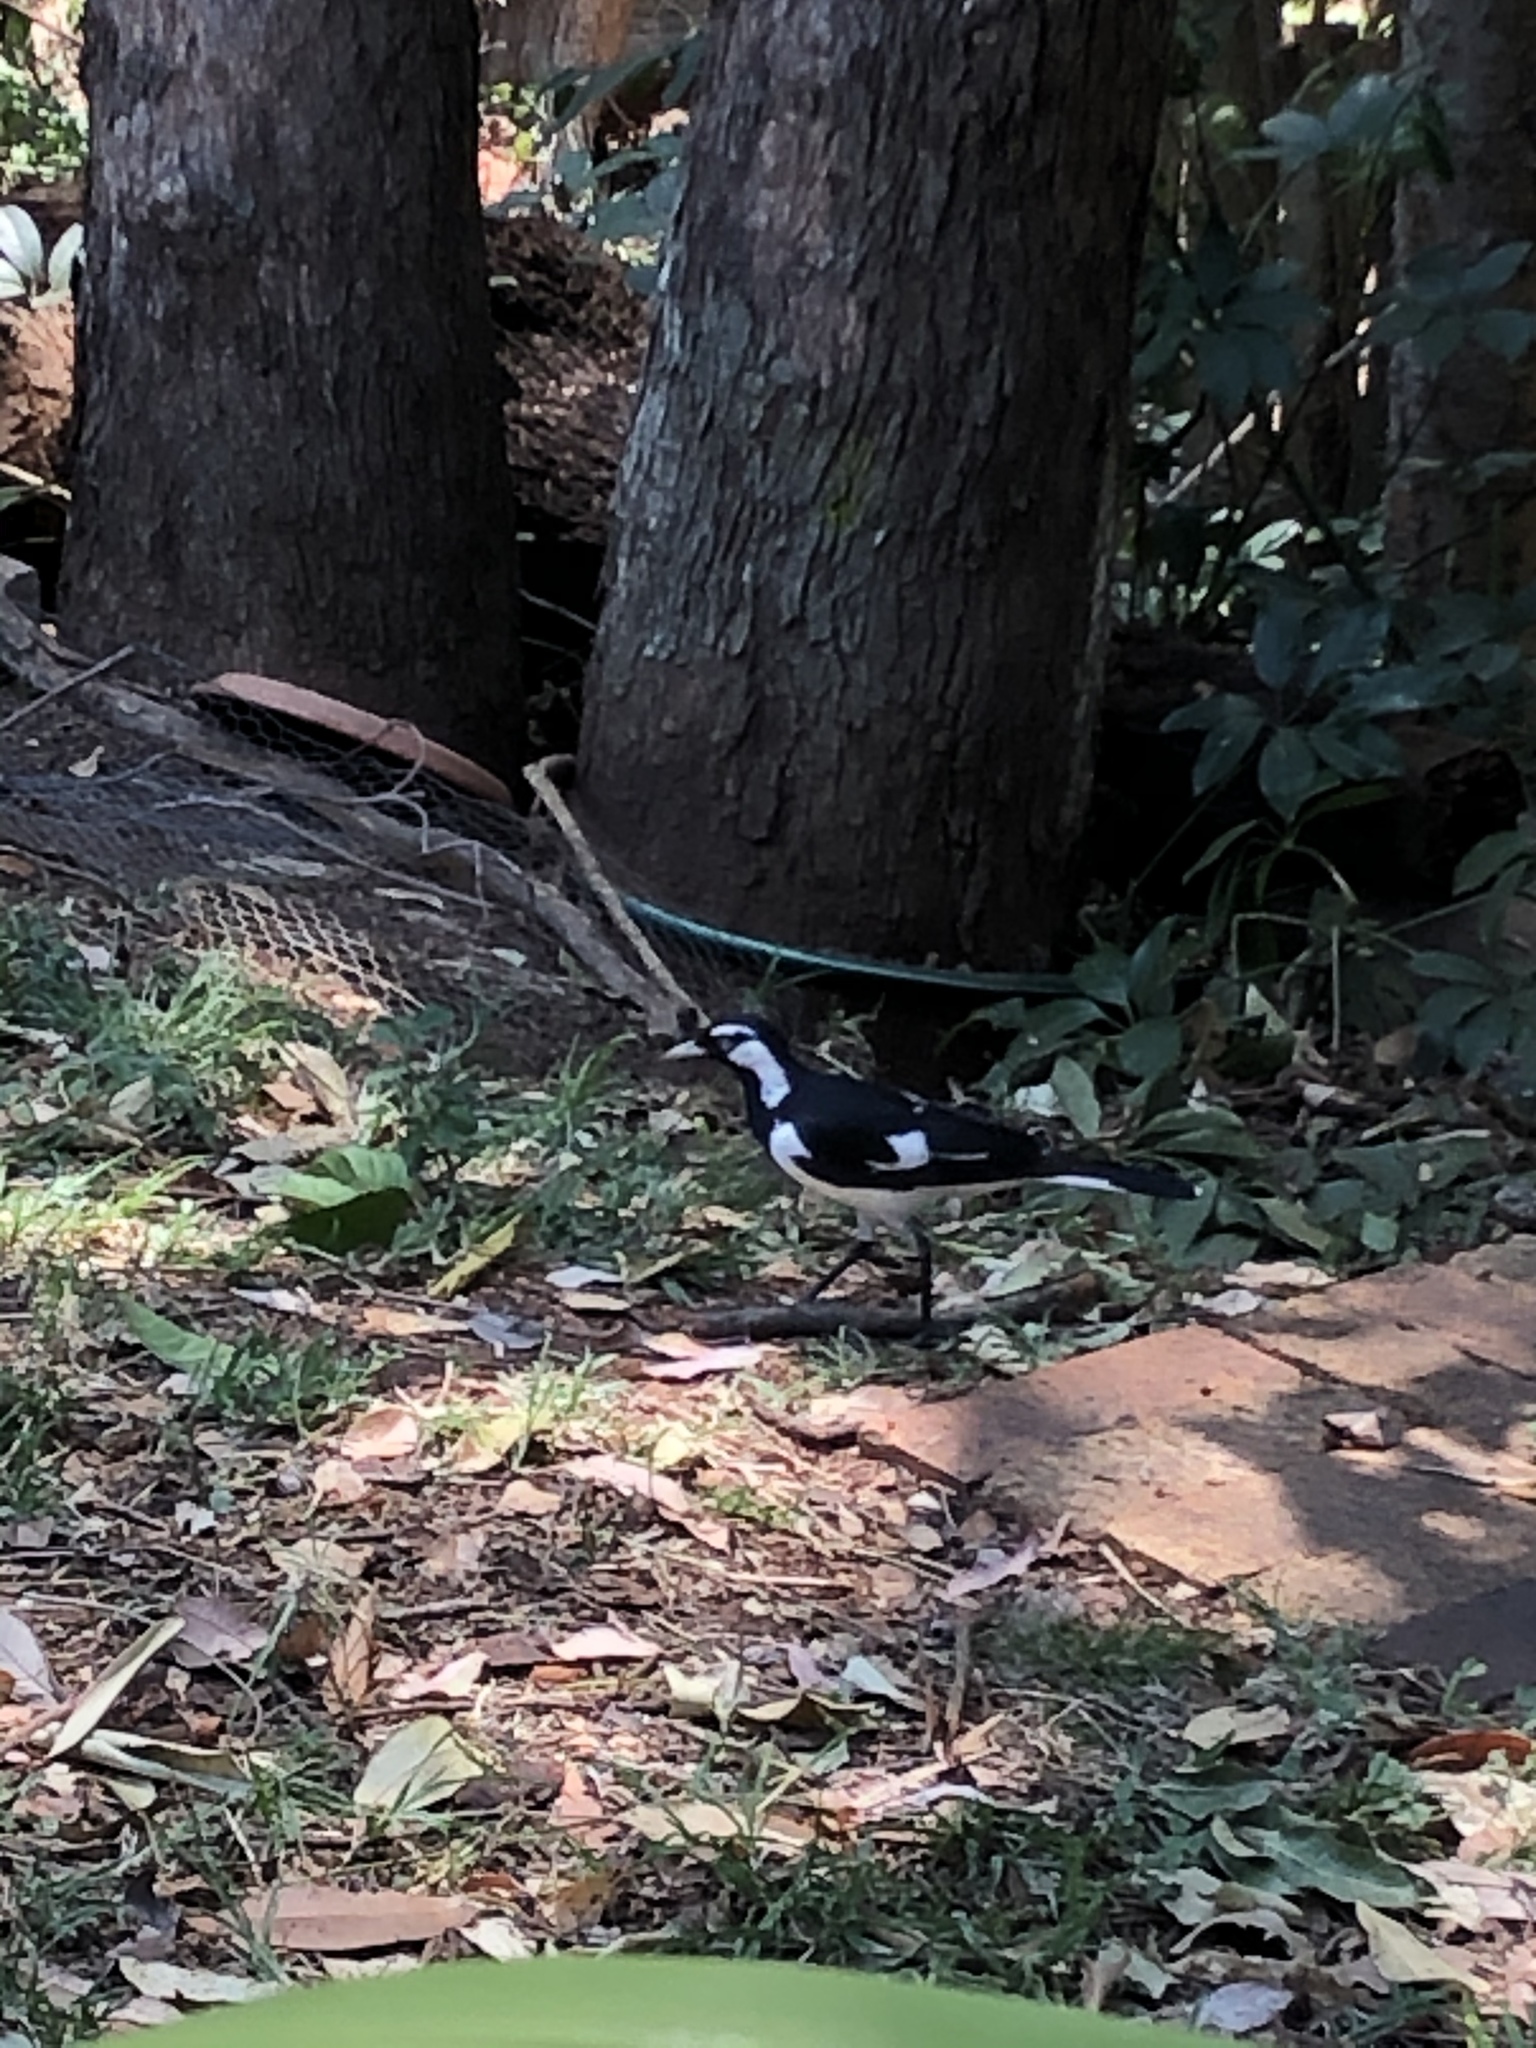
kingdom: Animalia
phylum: Chordata
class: Aves
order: Passeriformes
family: Monarchidae
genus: Grallina
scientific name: Grallina cyanoleuca
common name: Magpie-lark
